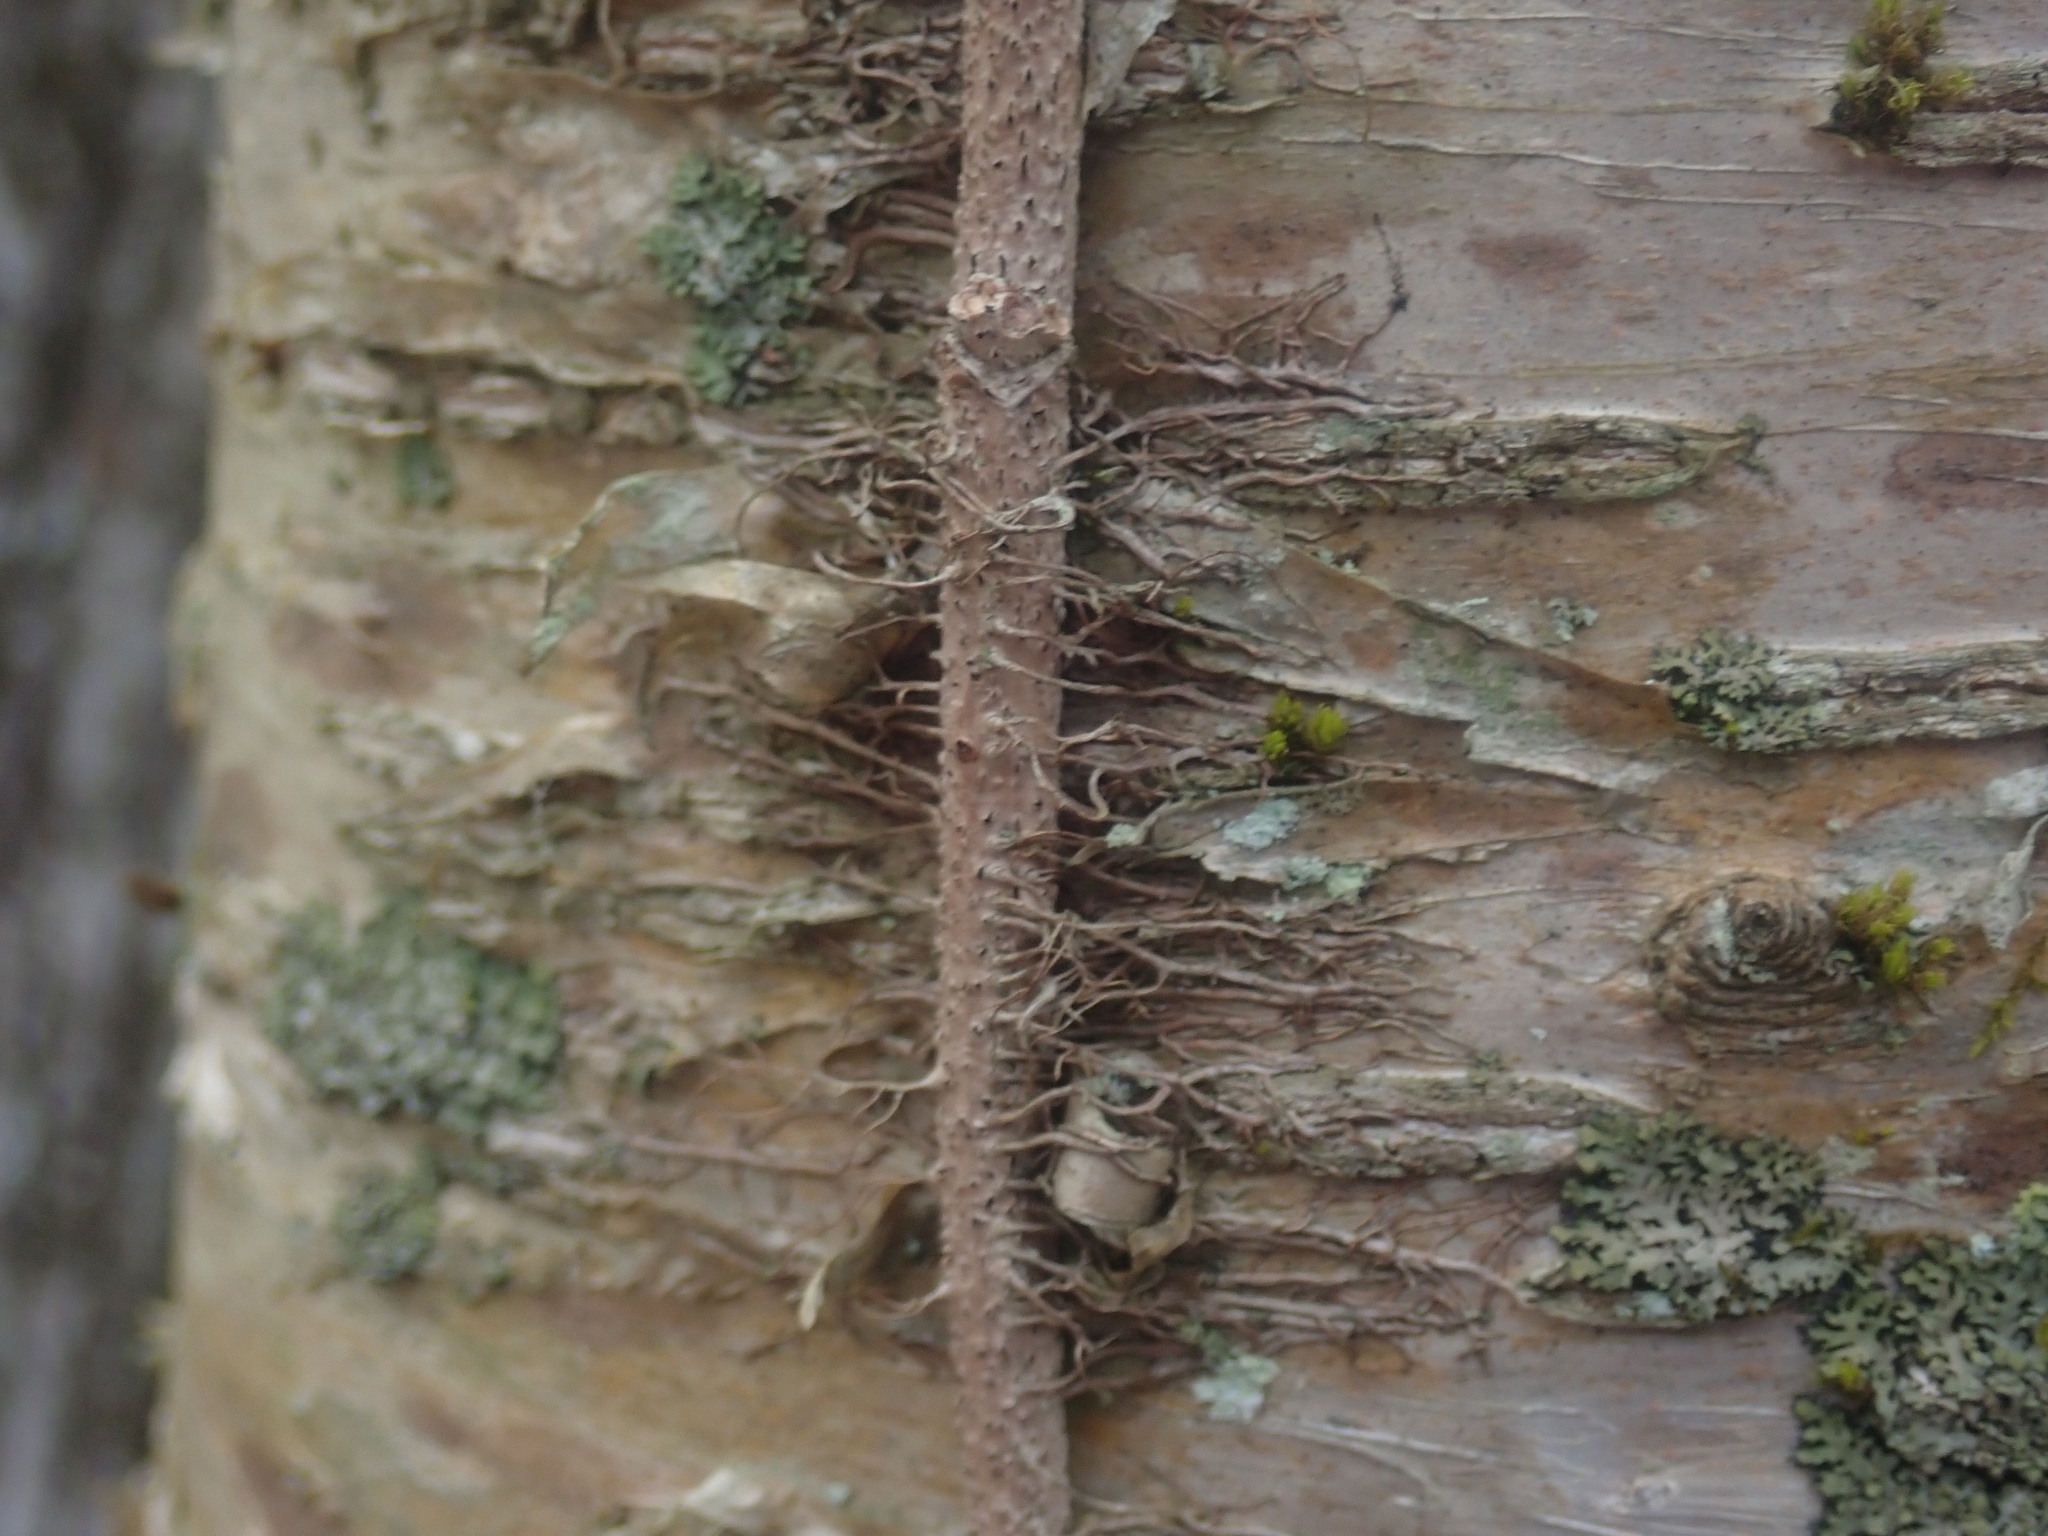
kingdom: Plantae
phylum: Tracheophyta
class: Magnoliopsida
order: Sapindales
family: Anacardiaceae
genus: Toxicodendron
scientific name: Toxicodendron radicans
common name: Poison ivy
